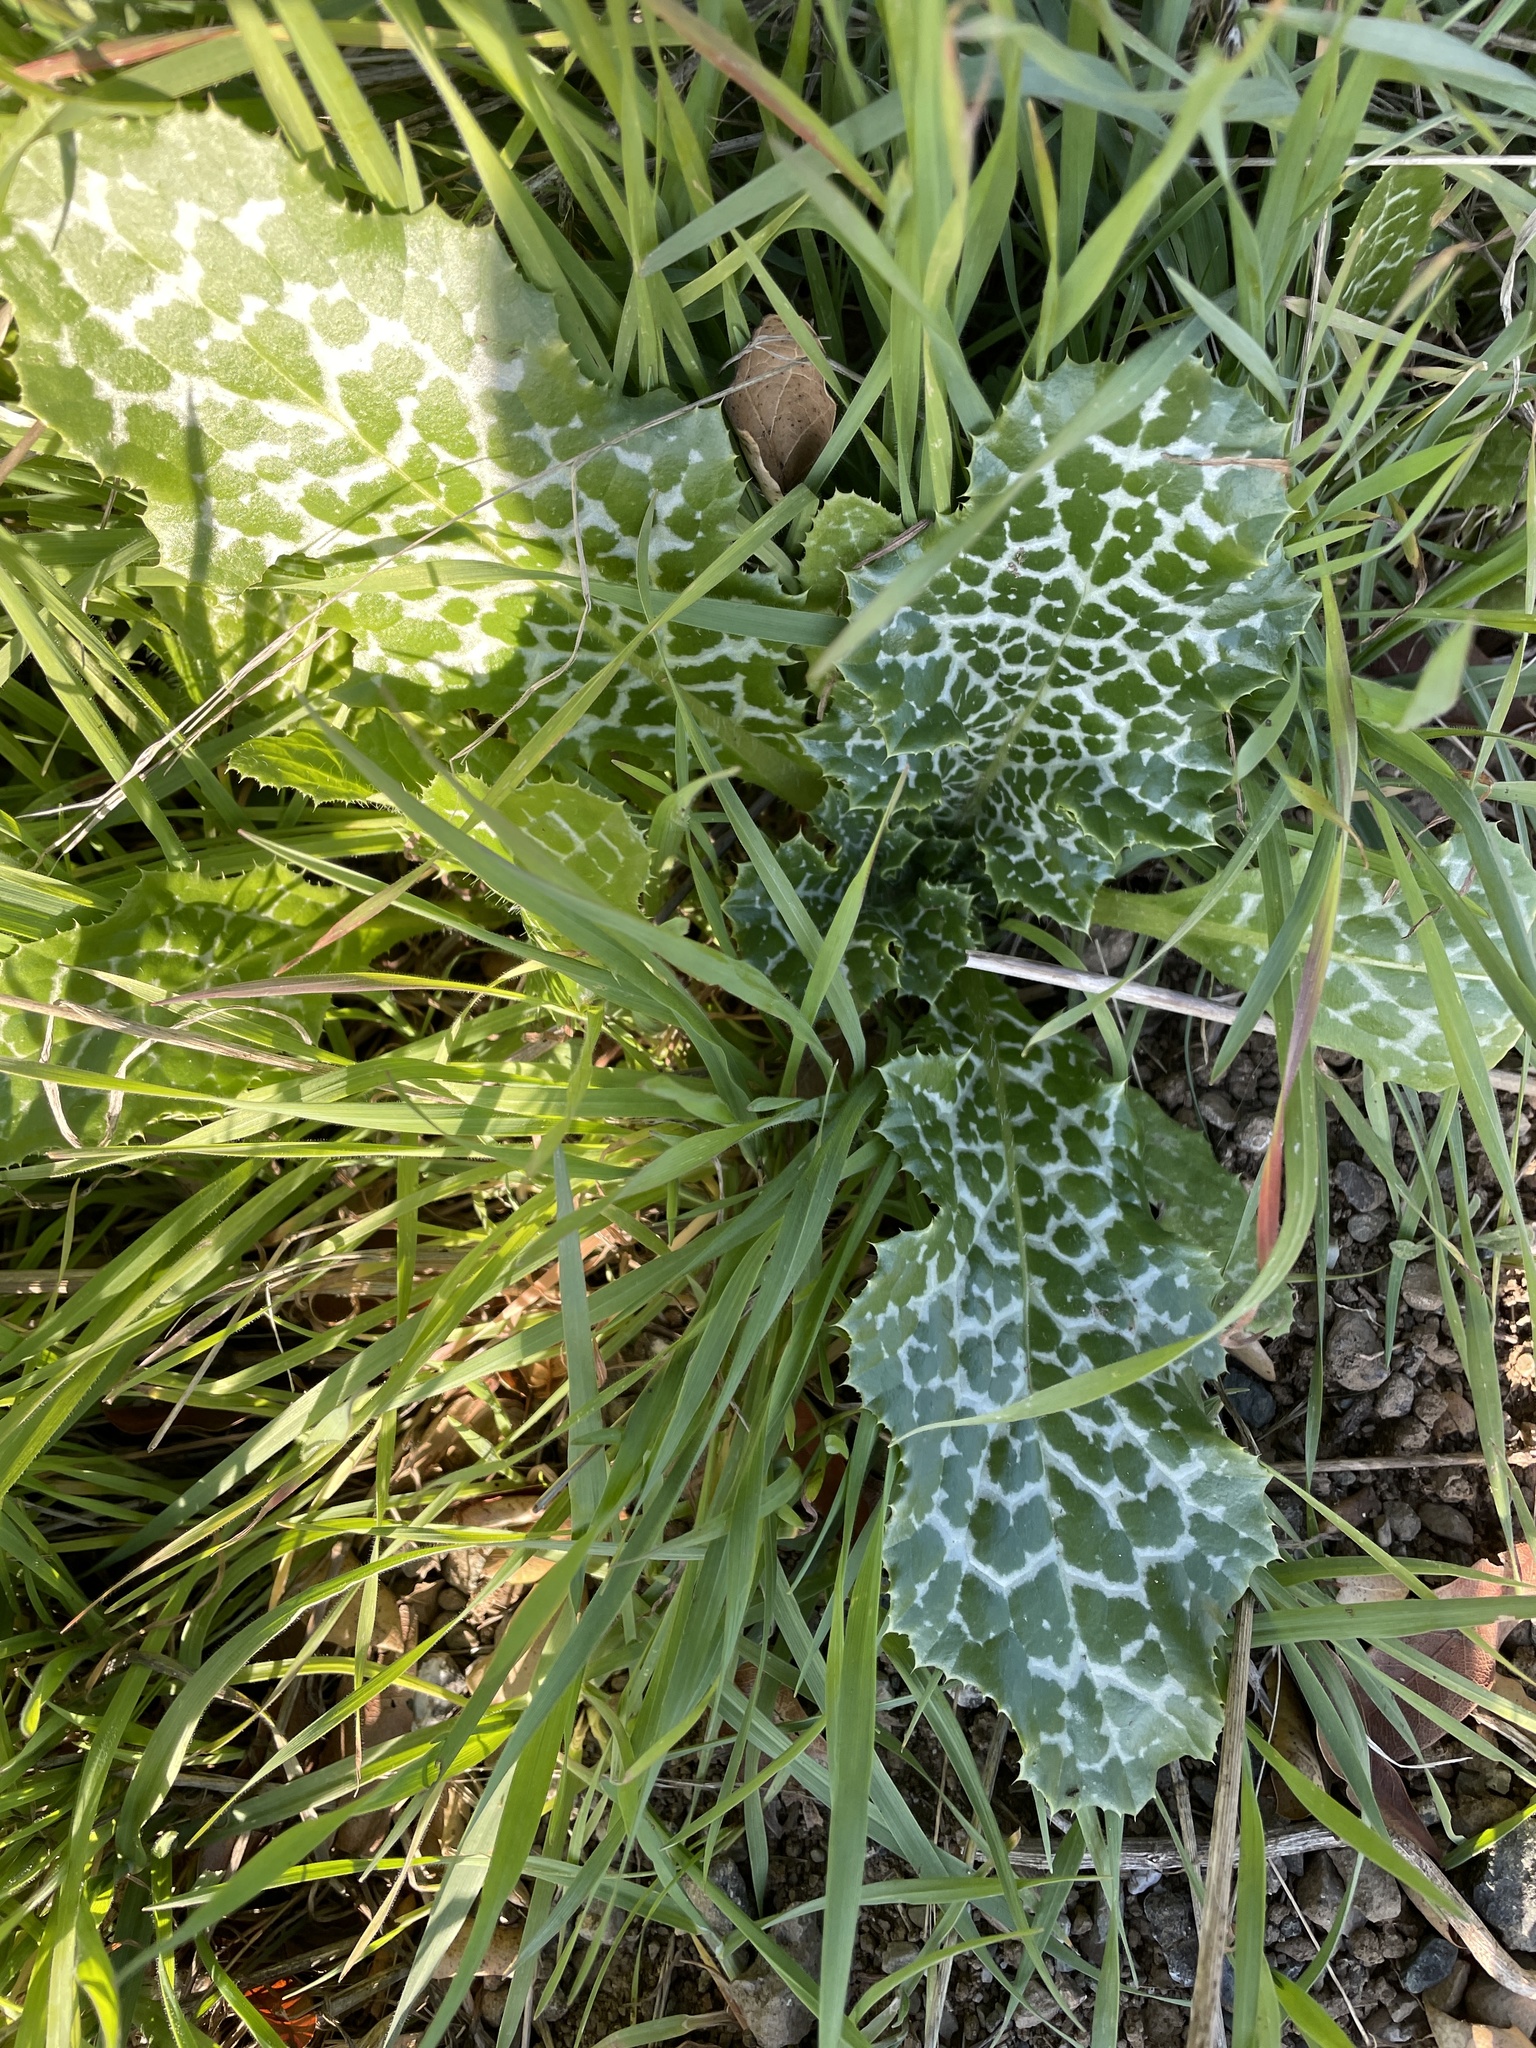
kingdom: Plantae
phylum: Tracheophyta
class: Magnoliopsida
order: Asterales
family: Asteraceae
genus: Silybum
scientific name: Silybum marianum
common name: Milk thistle
